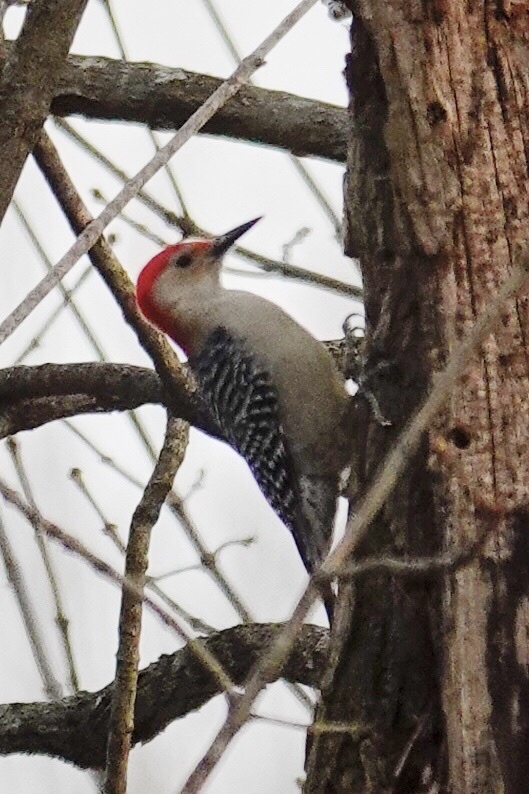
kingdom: Animalia
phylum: Chordata
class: Aves
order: Piciformes
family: Picidae
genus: Melanerpes
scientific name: Melanerpes carolinus
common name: Red-bellied woodpecker
